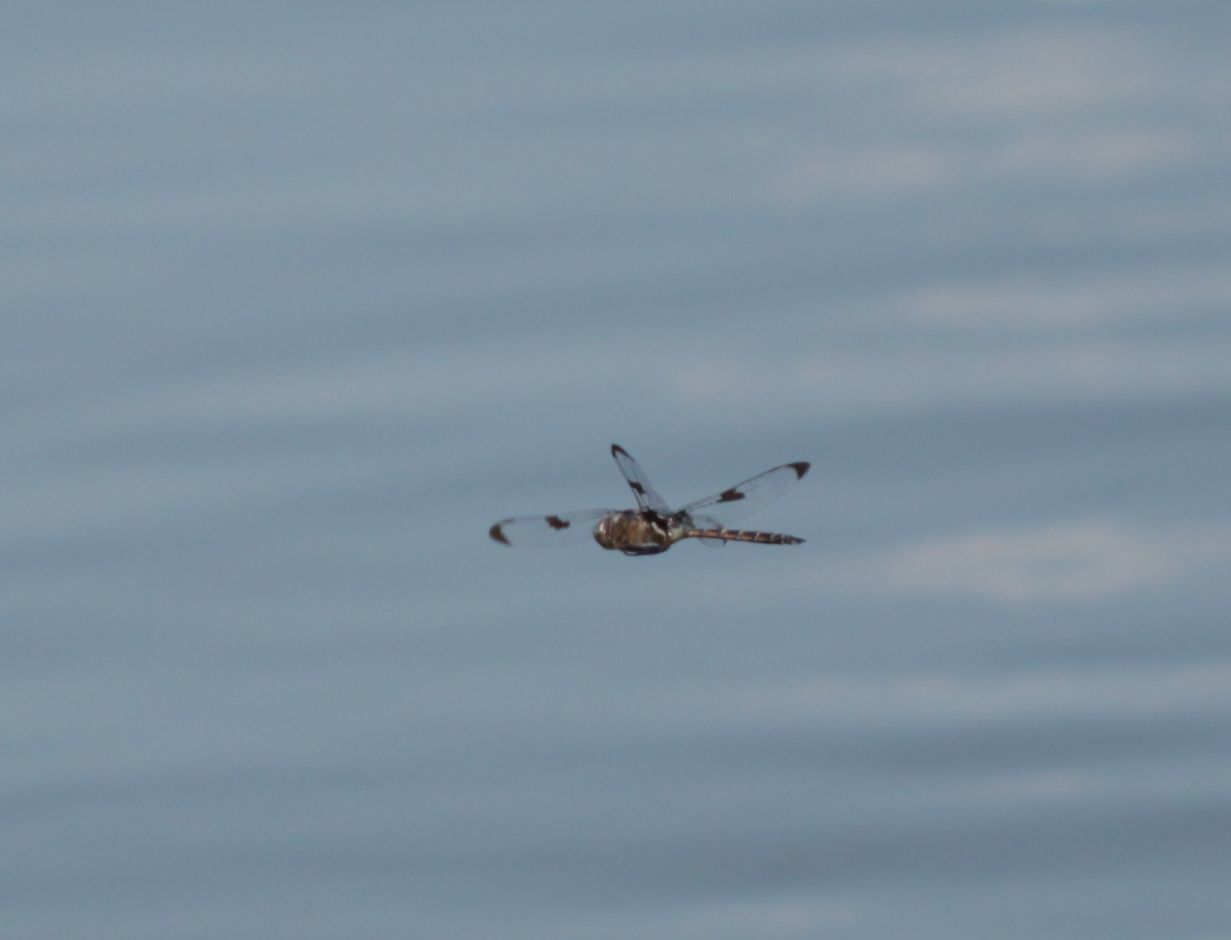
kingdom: Animalia
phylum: Arthropoda
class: Insecta
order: Odonata
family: Corduliidae
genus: Epitheca
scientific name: Epitheca princeps
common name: Prince baskettail
